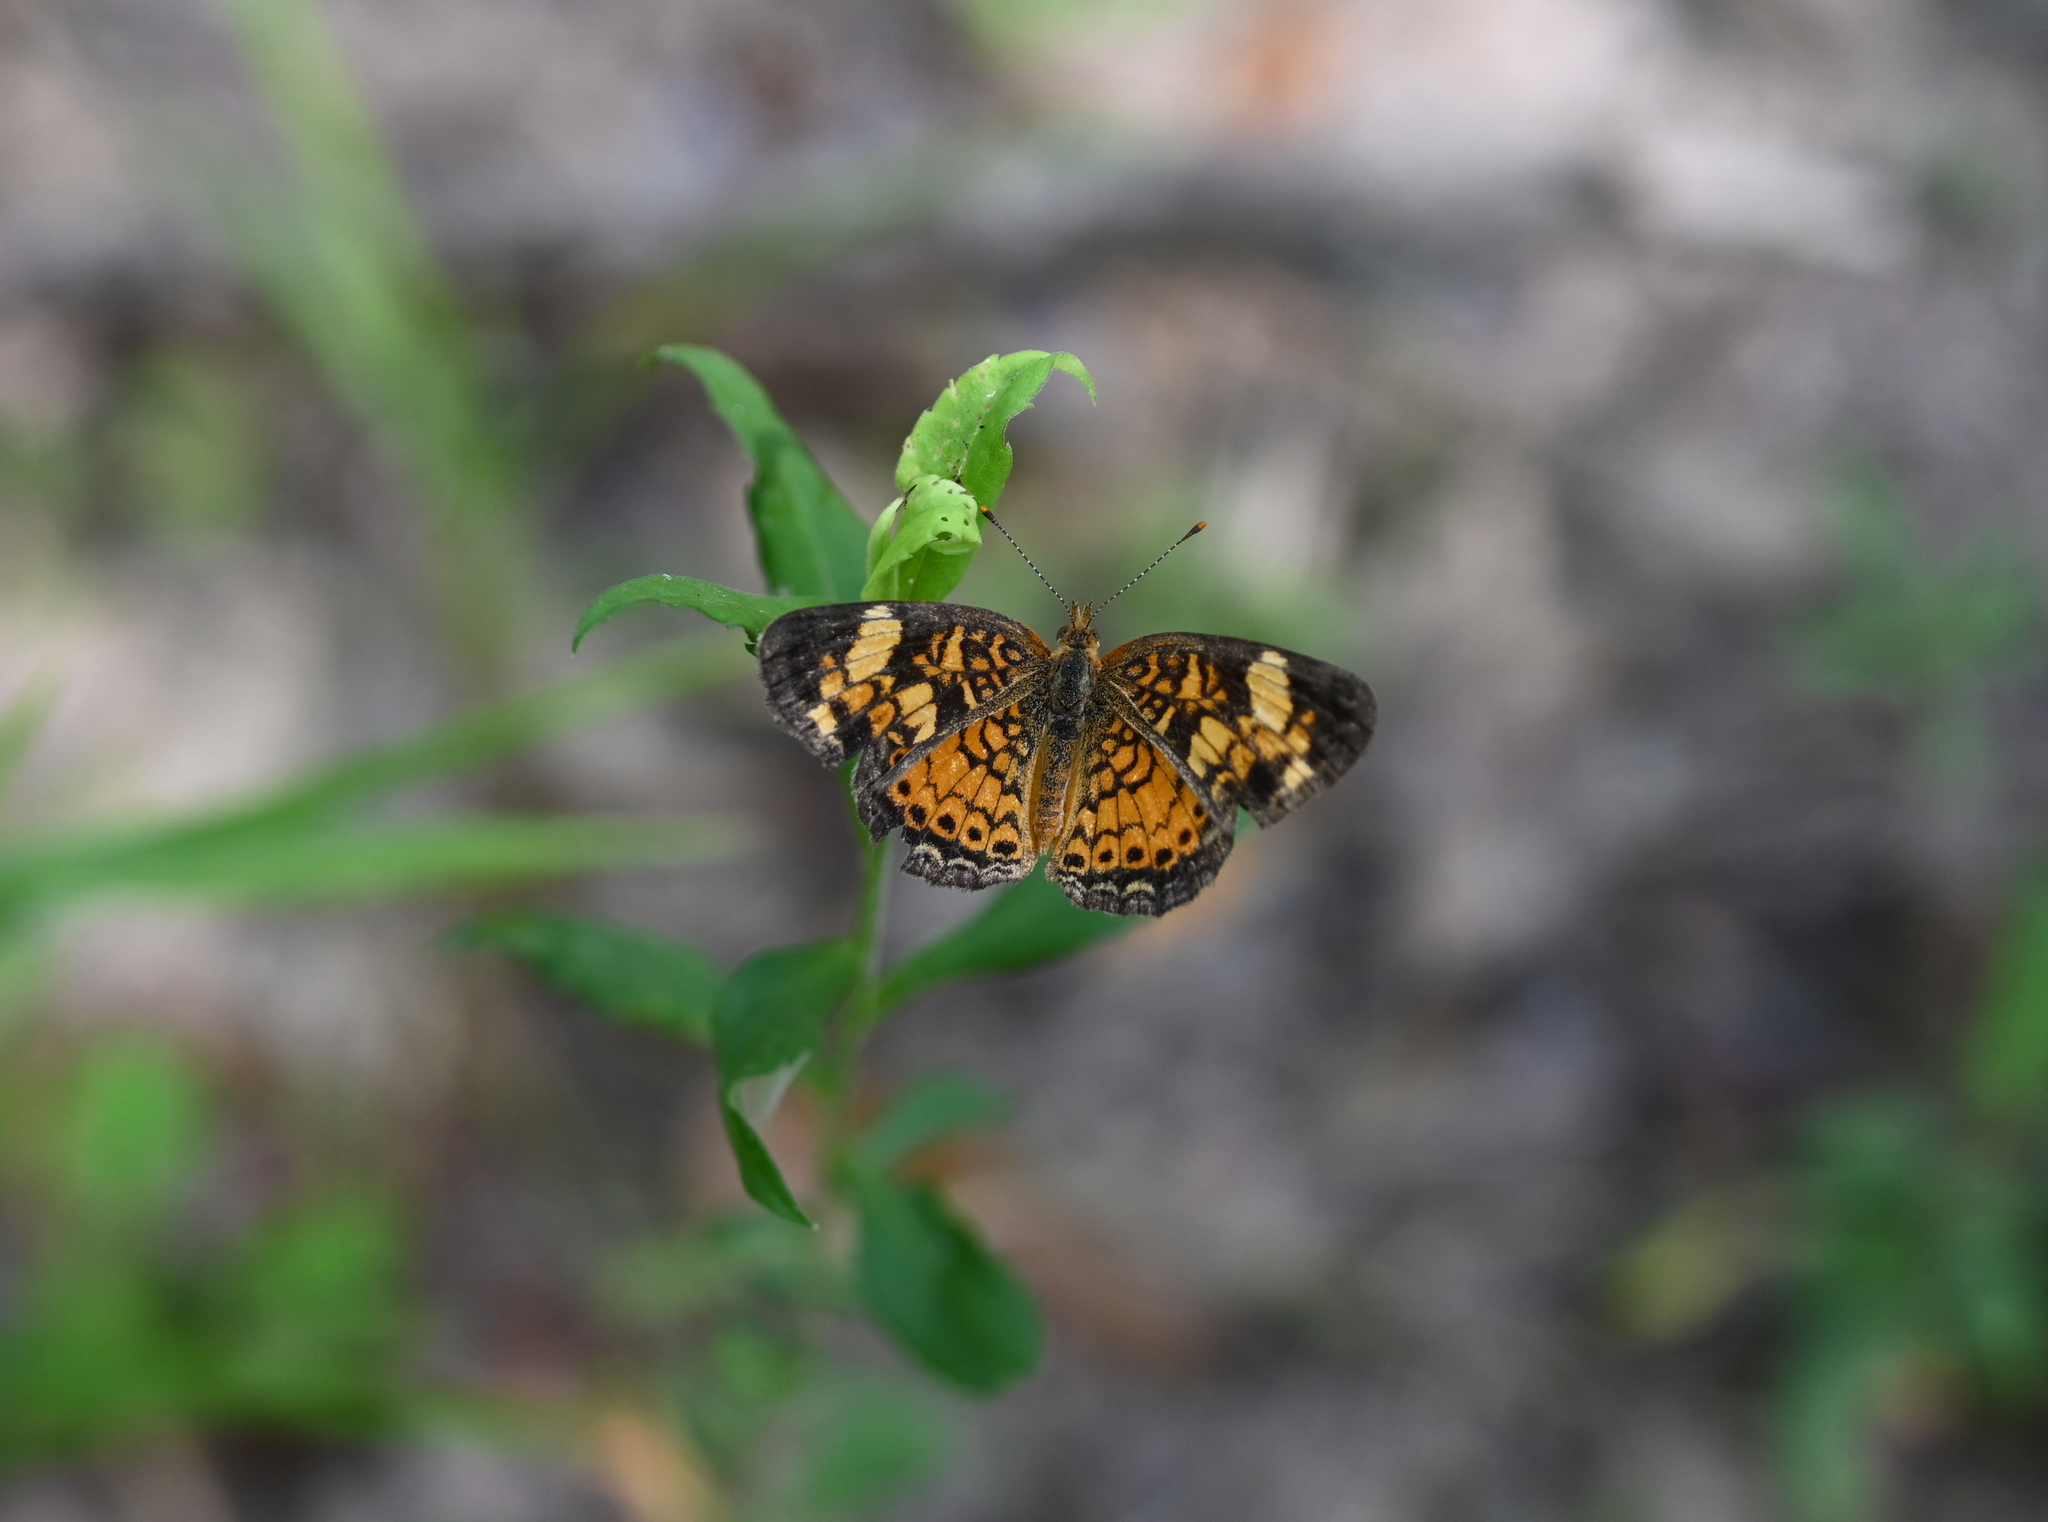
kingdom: Animalia
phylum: Arthropoda
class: Insecta
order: Lepidoptera
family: Nymphalidae
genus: Phyciodes
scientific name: Phyciodes tharos
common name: Pearl crescent
